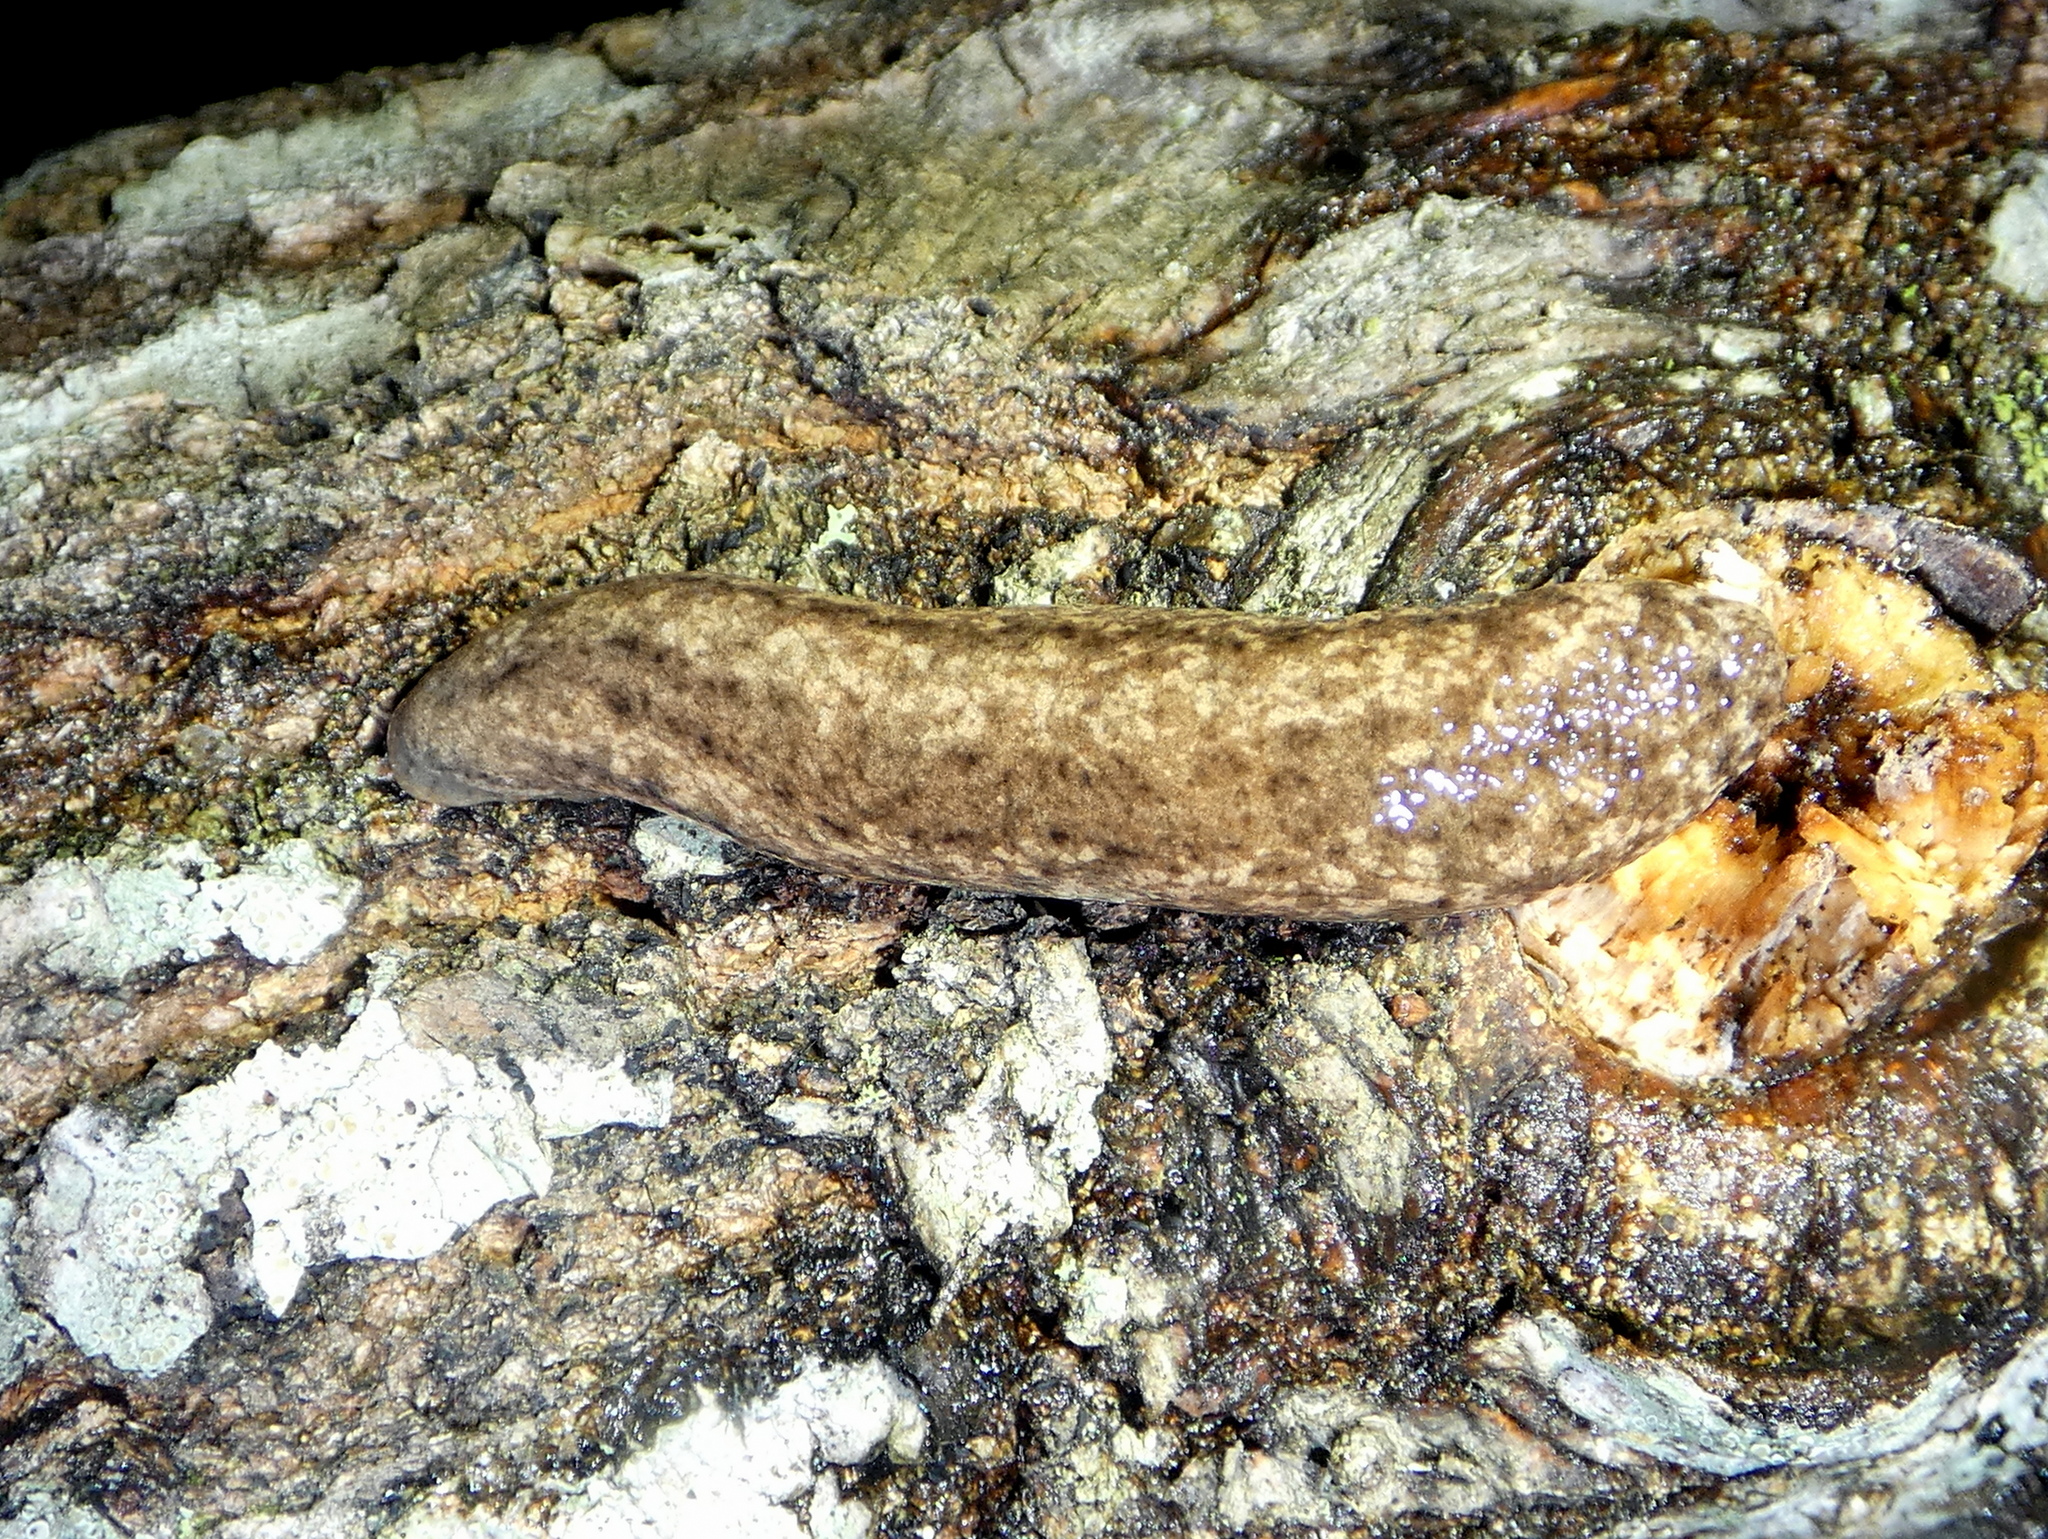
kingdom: Animalia
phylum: Mollusca
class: Gastropoda
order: Stylommatophora
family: Philomycidae
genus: Philomycus
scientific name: Philomycus togatus
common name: Toga mantleslug
